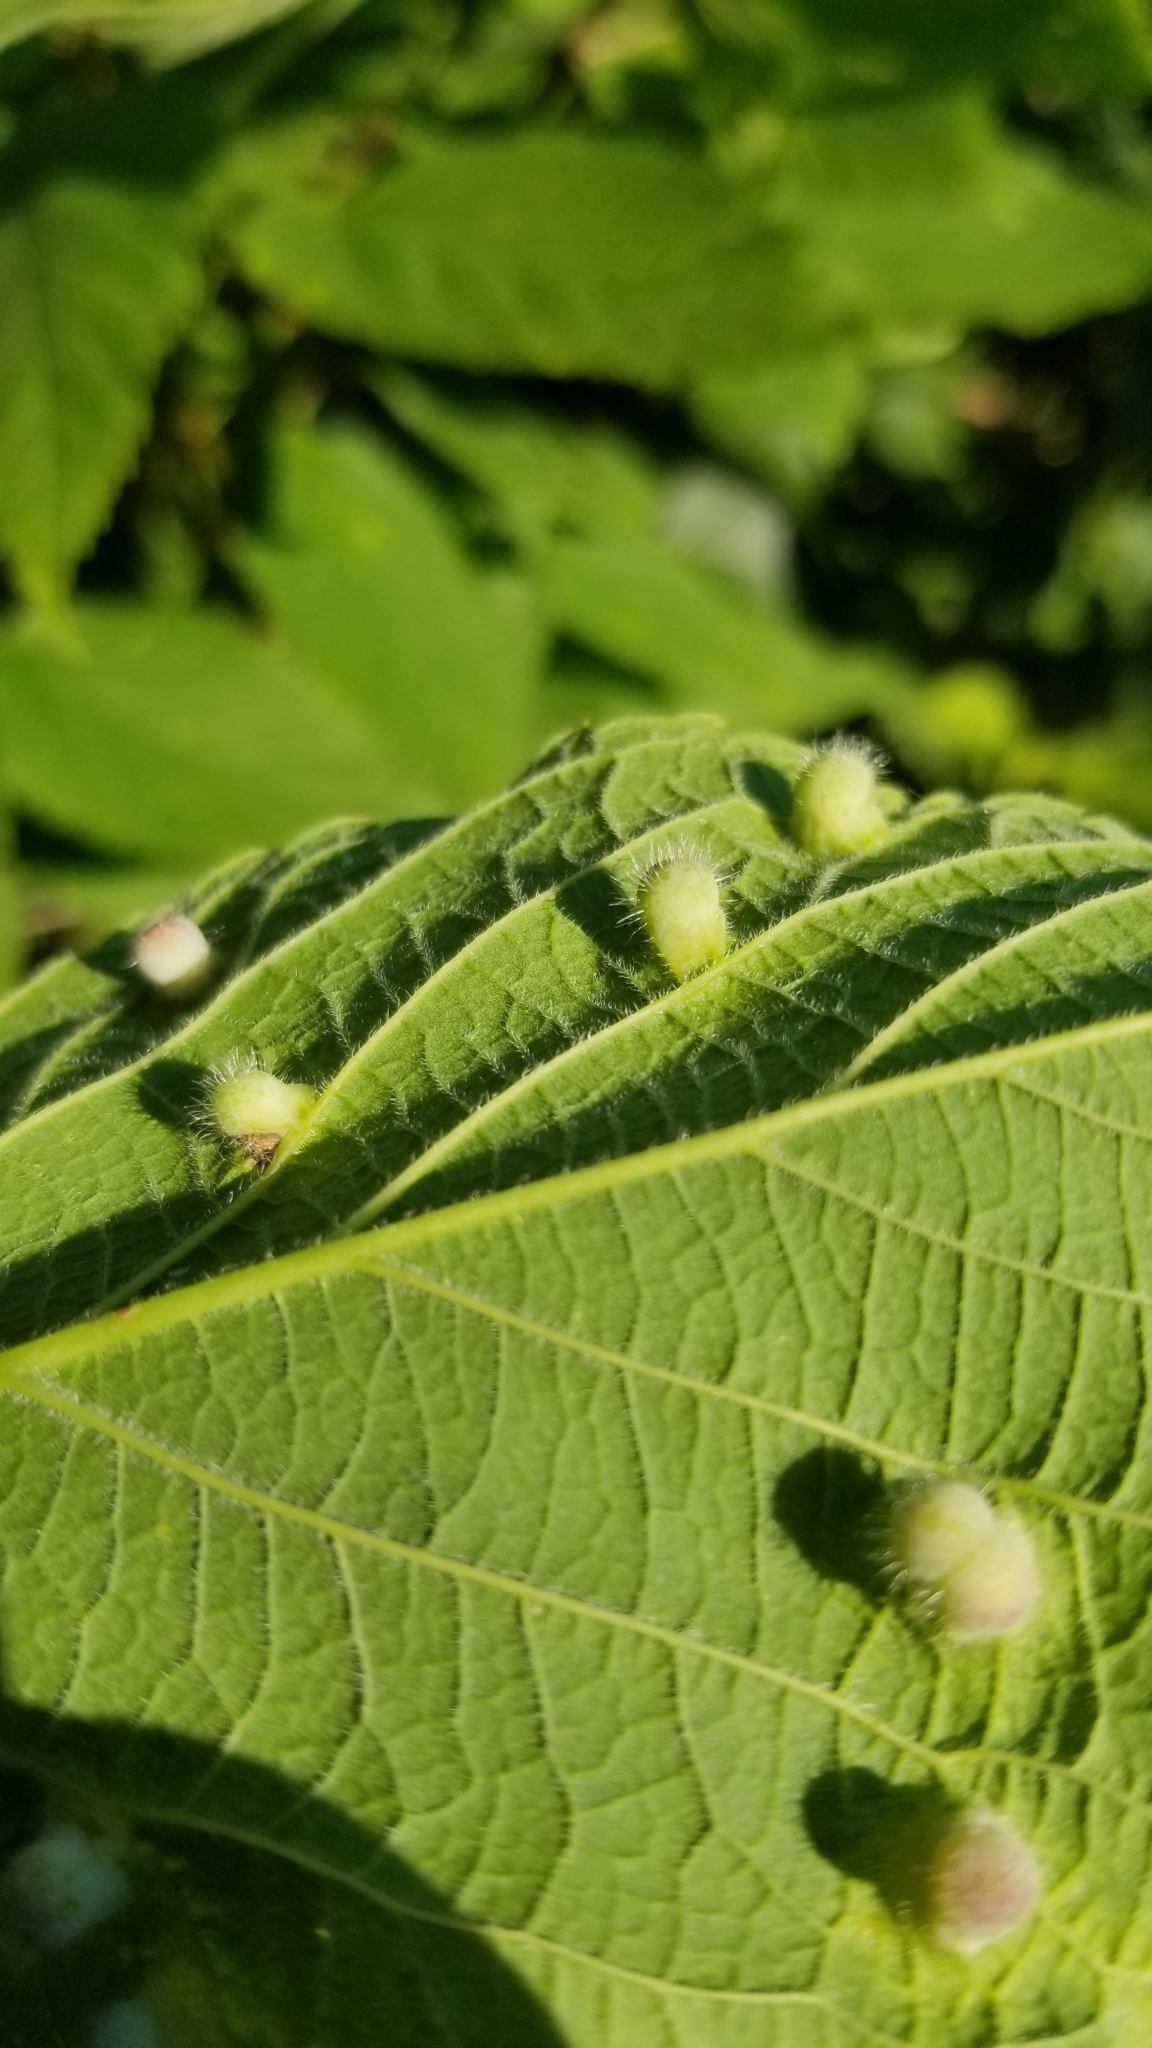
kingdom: Animalia
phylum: Arthropoda
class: Insecta
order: Hemiptera
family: Aphalaridae
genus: Pachypsylla
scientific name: Pachypsylla celtidismamma
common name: Hackberry nipplegall psyllid
